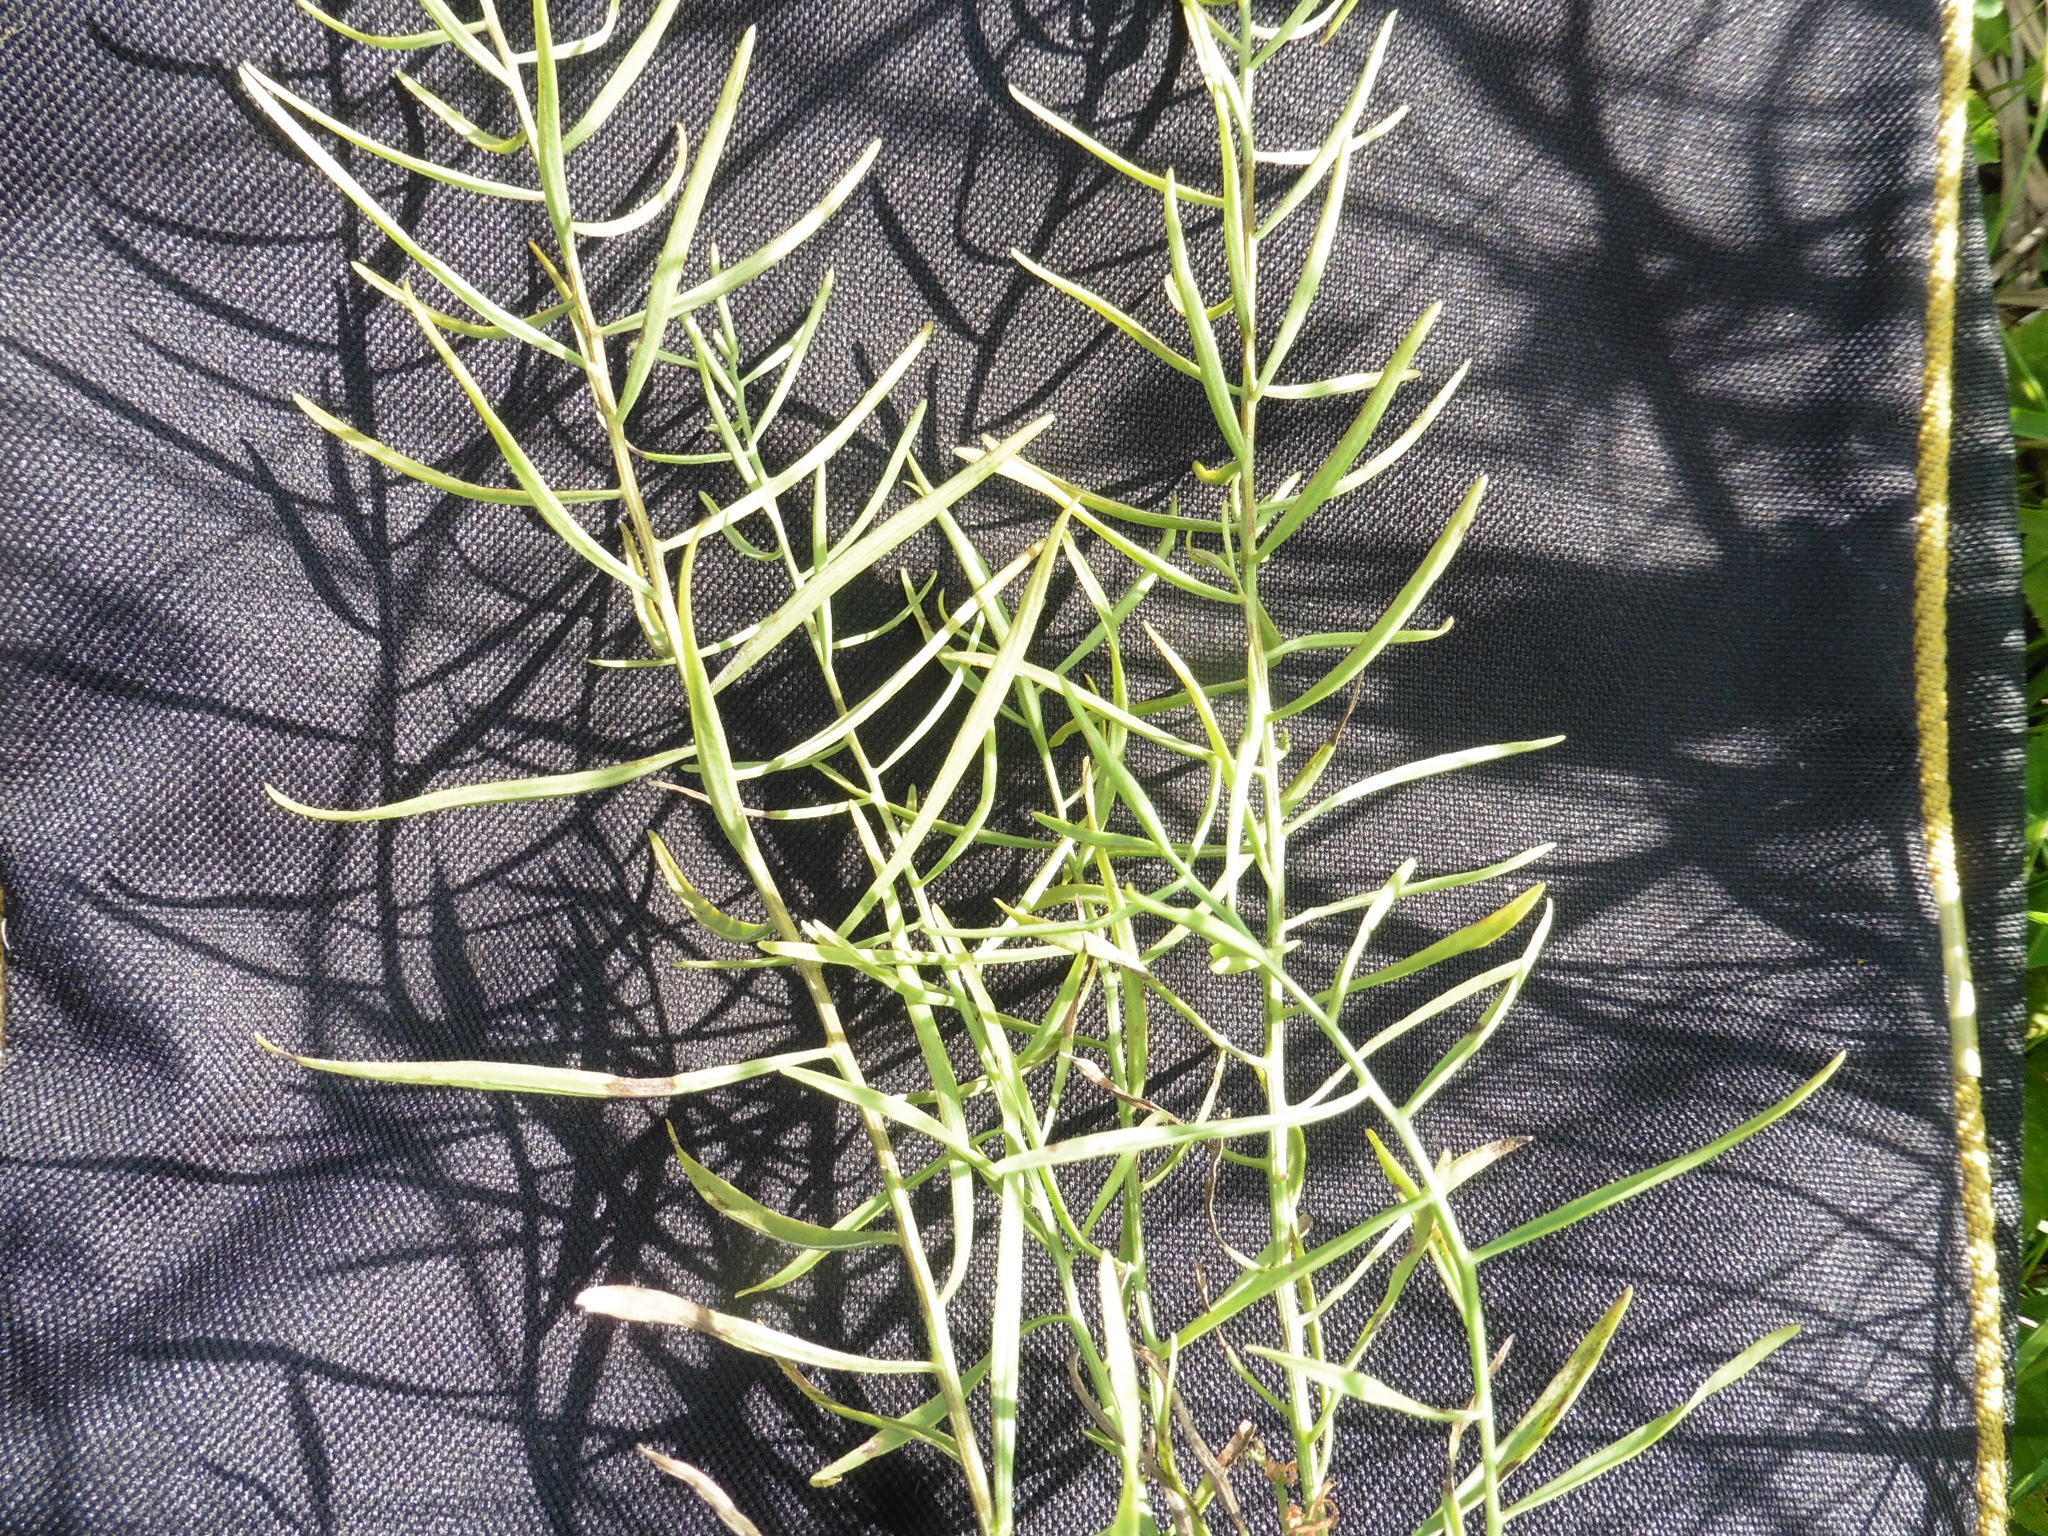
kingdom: Plantae
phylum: Tracheophyta
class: Magnoliopsida
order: Santalales
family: Thesiaceae
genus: Thesium
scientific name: Thesium ebracteatum
